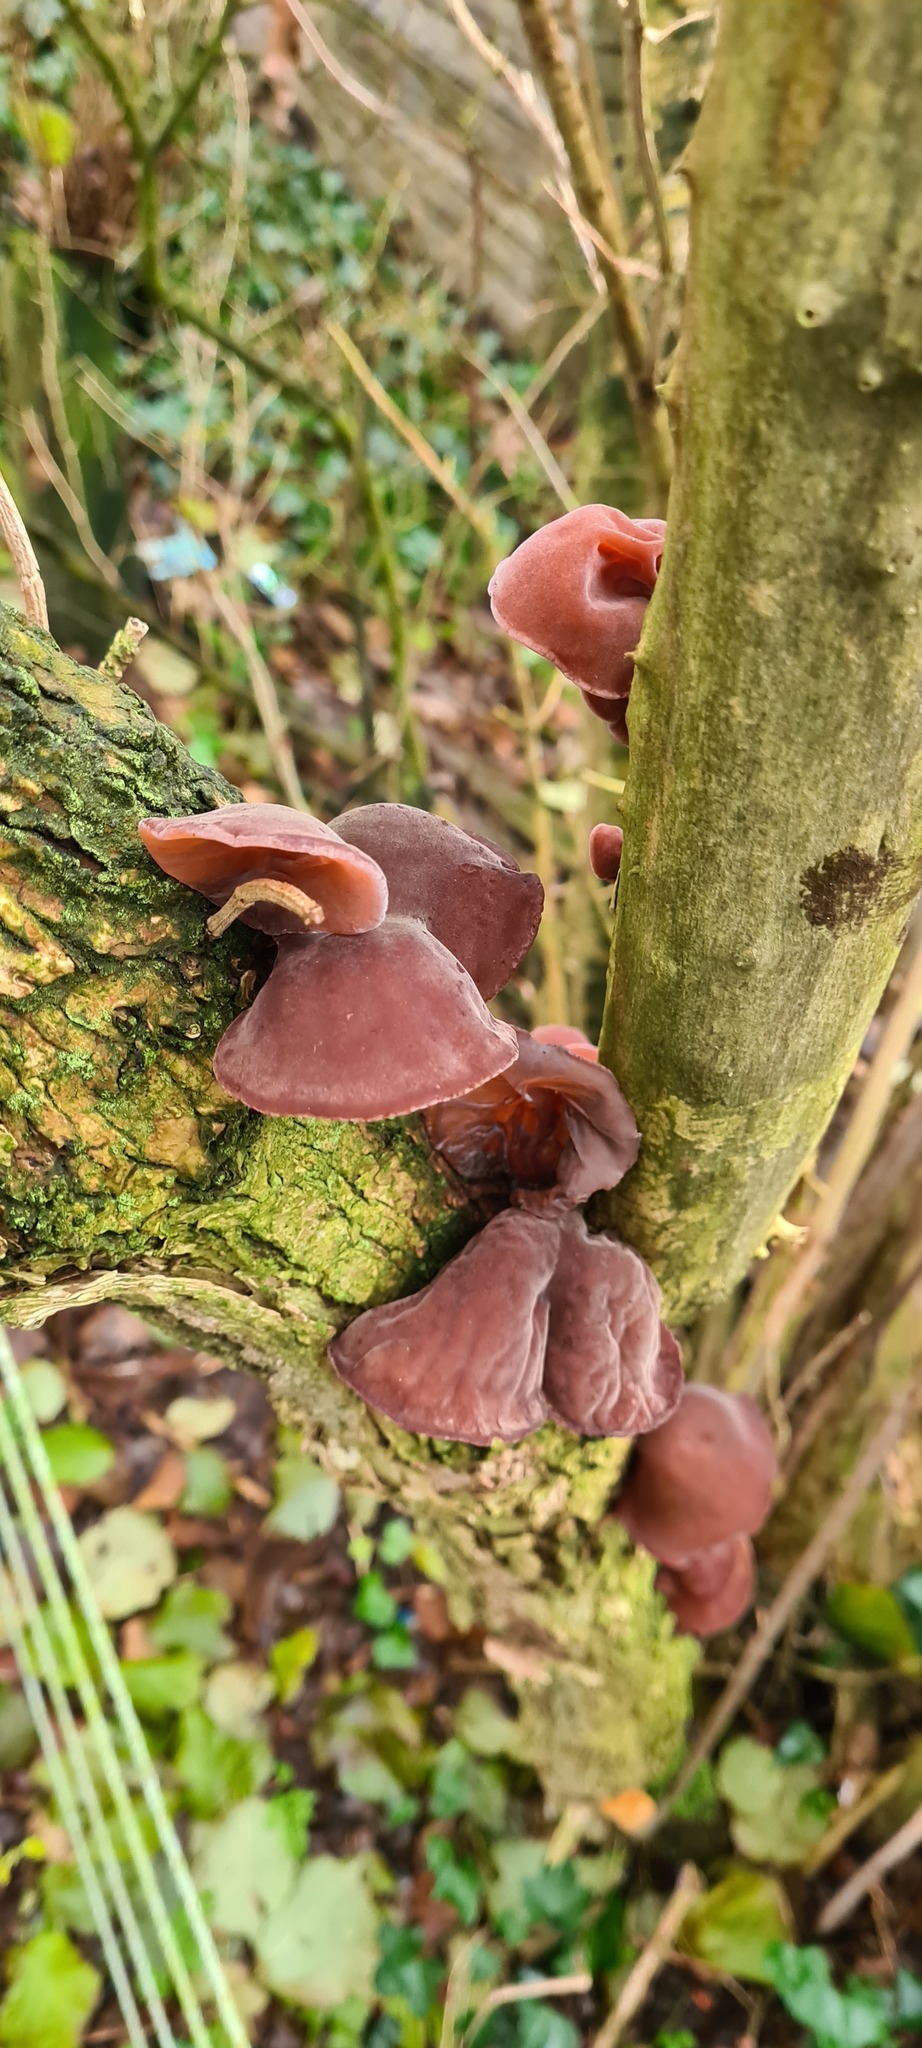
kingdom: Fungi
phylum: Basidiomycota
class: Agaricomycetes
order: Auriculariales
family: Auriculariaceae
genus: Auricularia
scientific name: Auricularia auricula-judae
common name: Jelly ear
